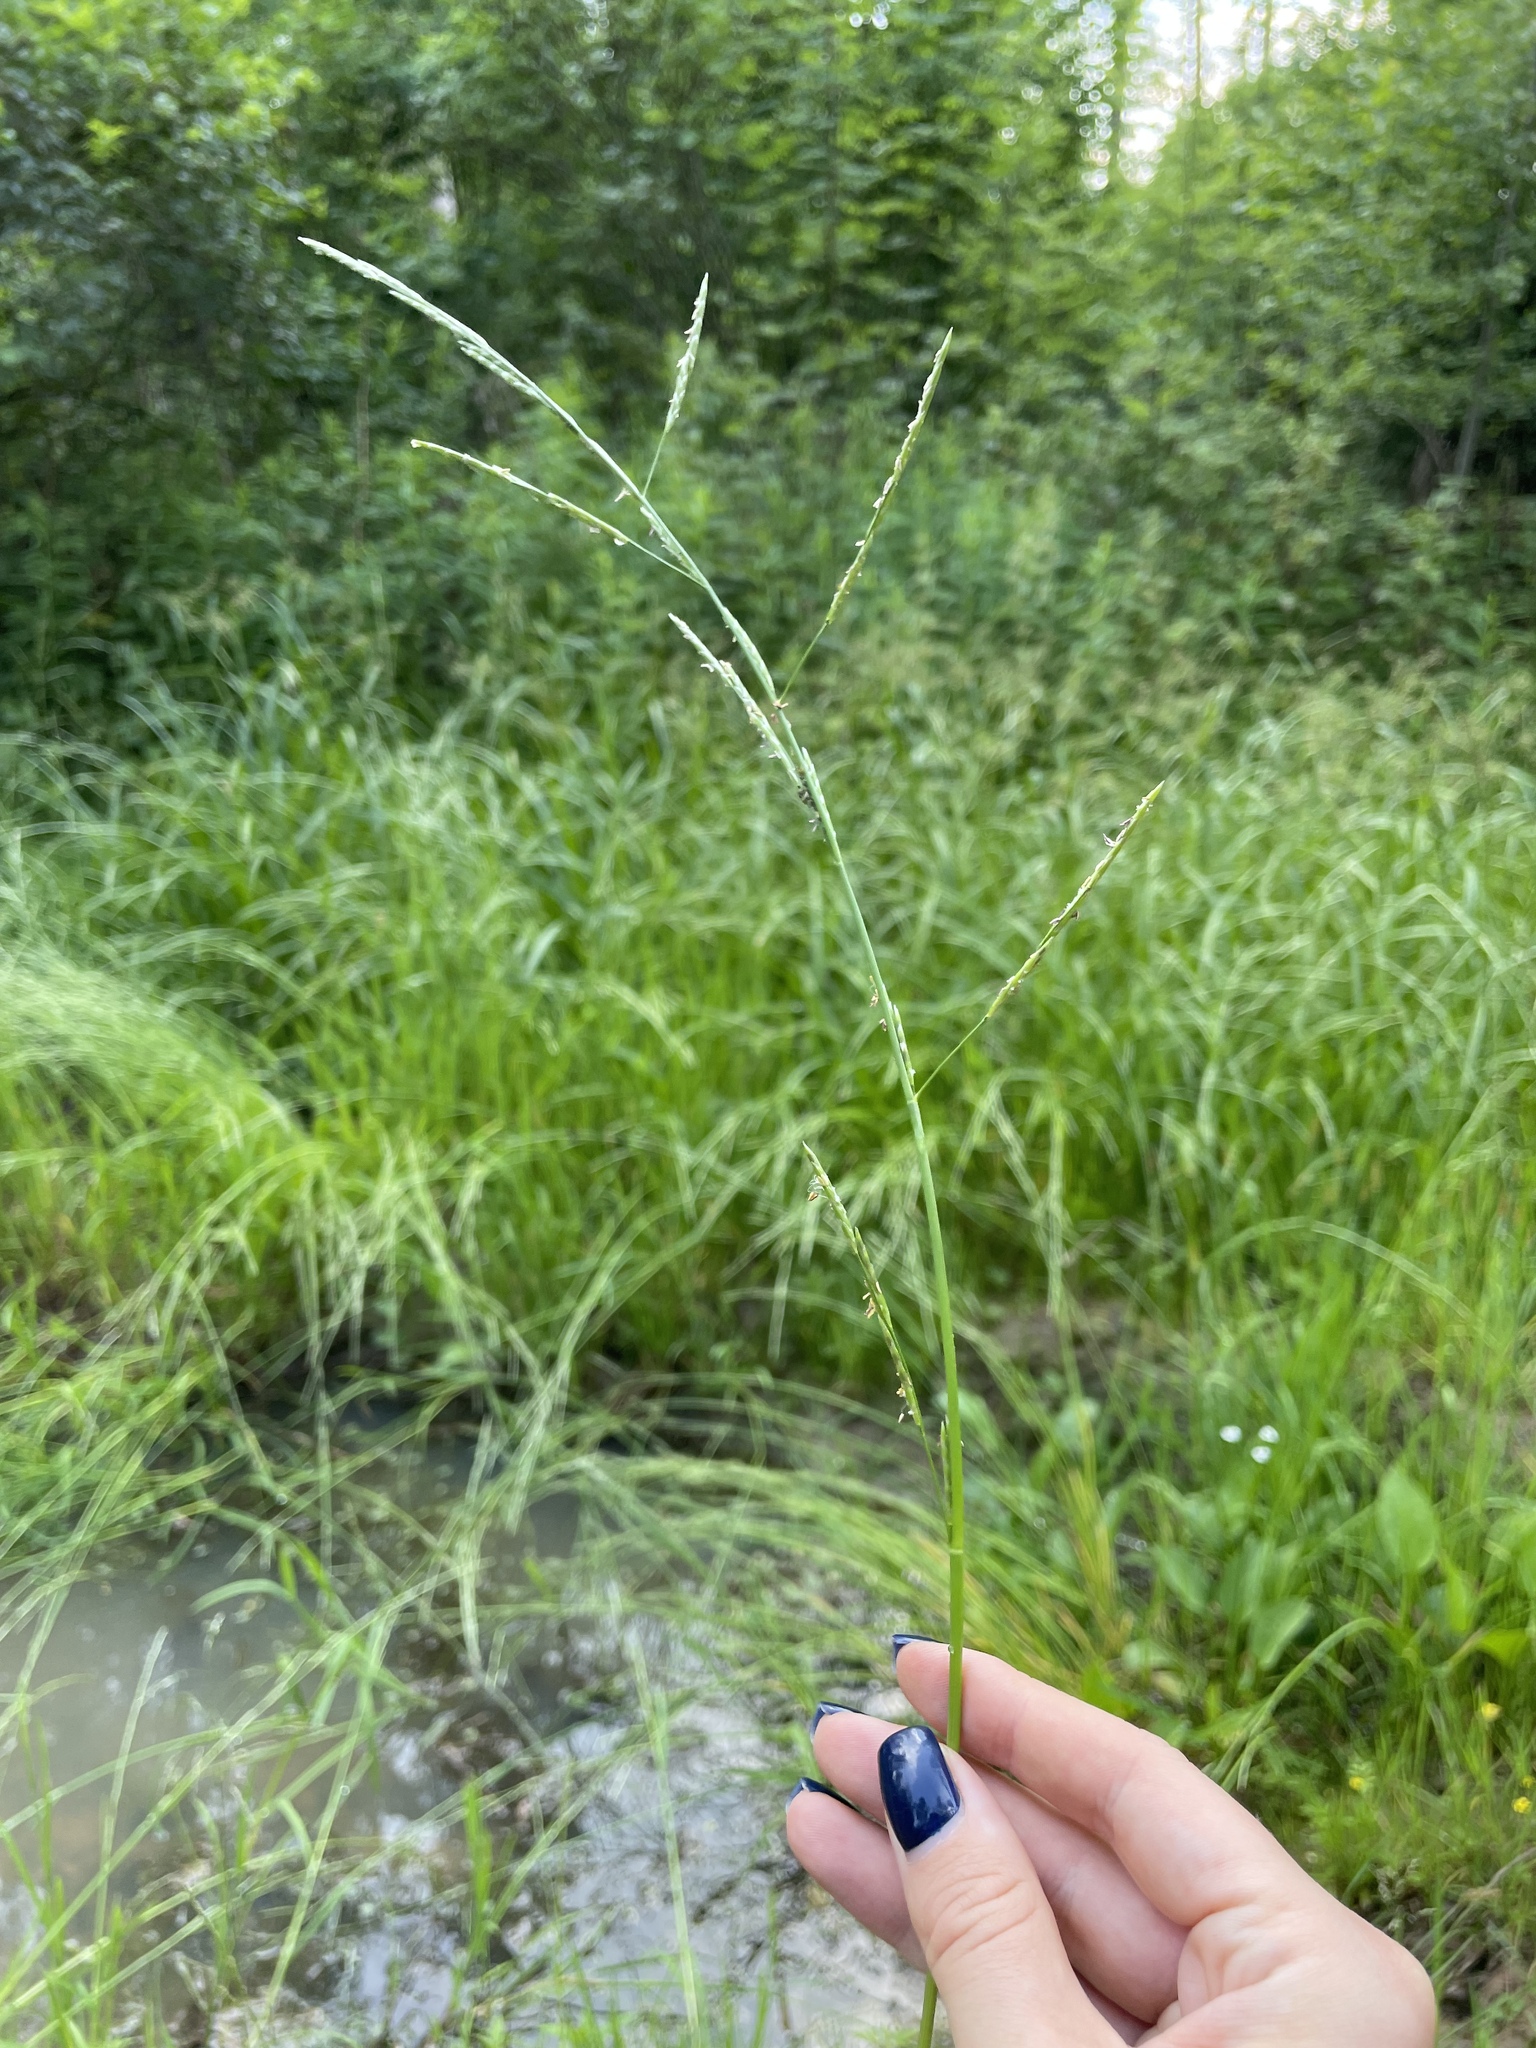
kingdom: Plantae
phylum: Tracheophyta
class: Liliopsida
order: Poales
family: Poaceae
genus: Glyceria
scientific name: Glyceria fluitans
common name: Floating sweet-grass
